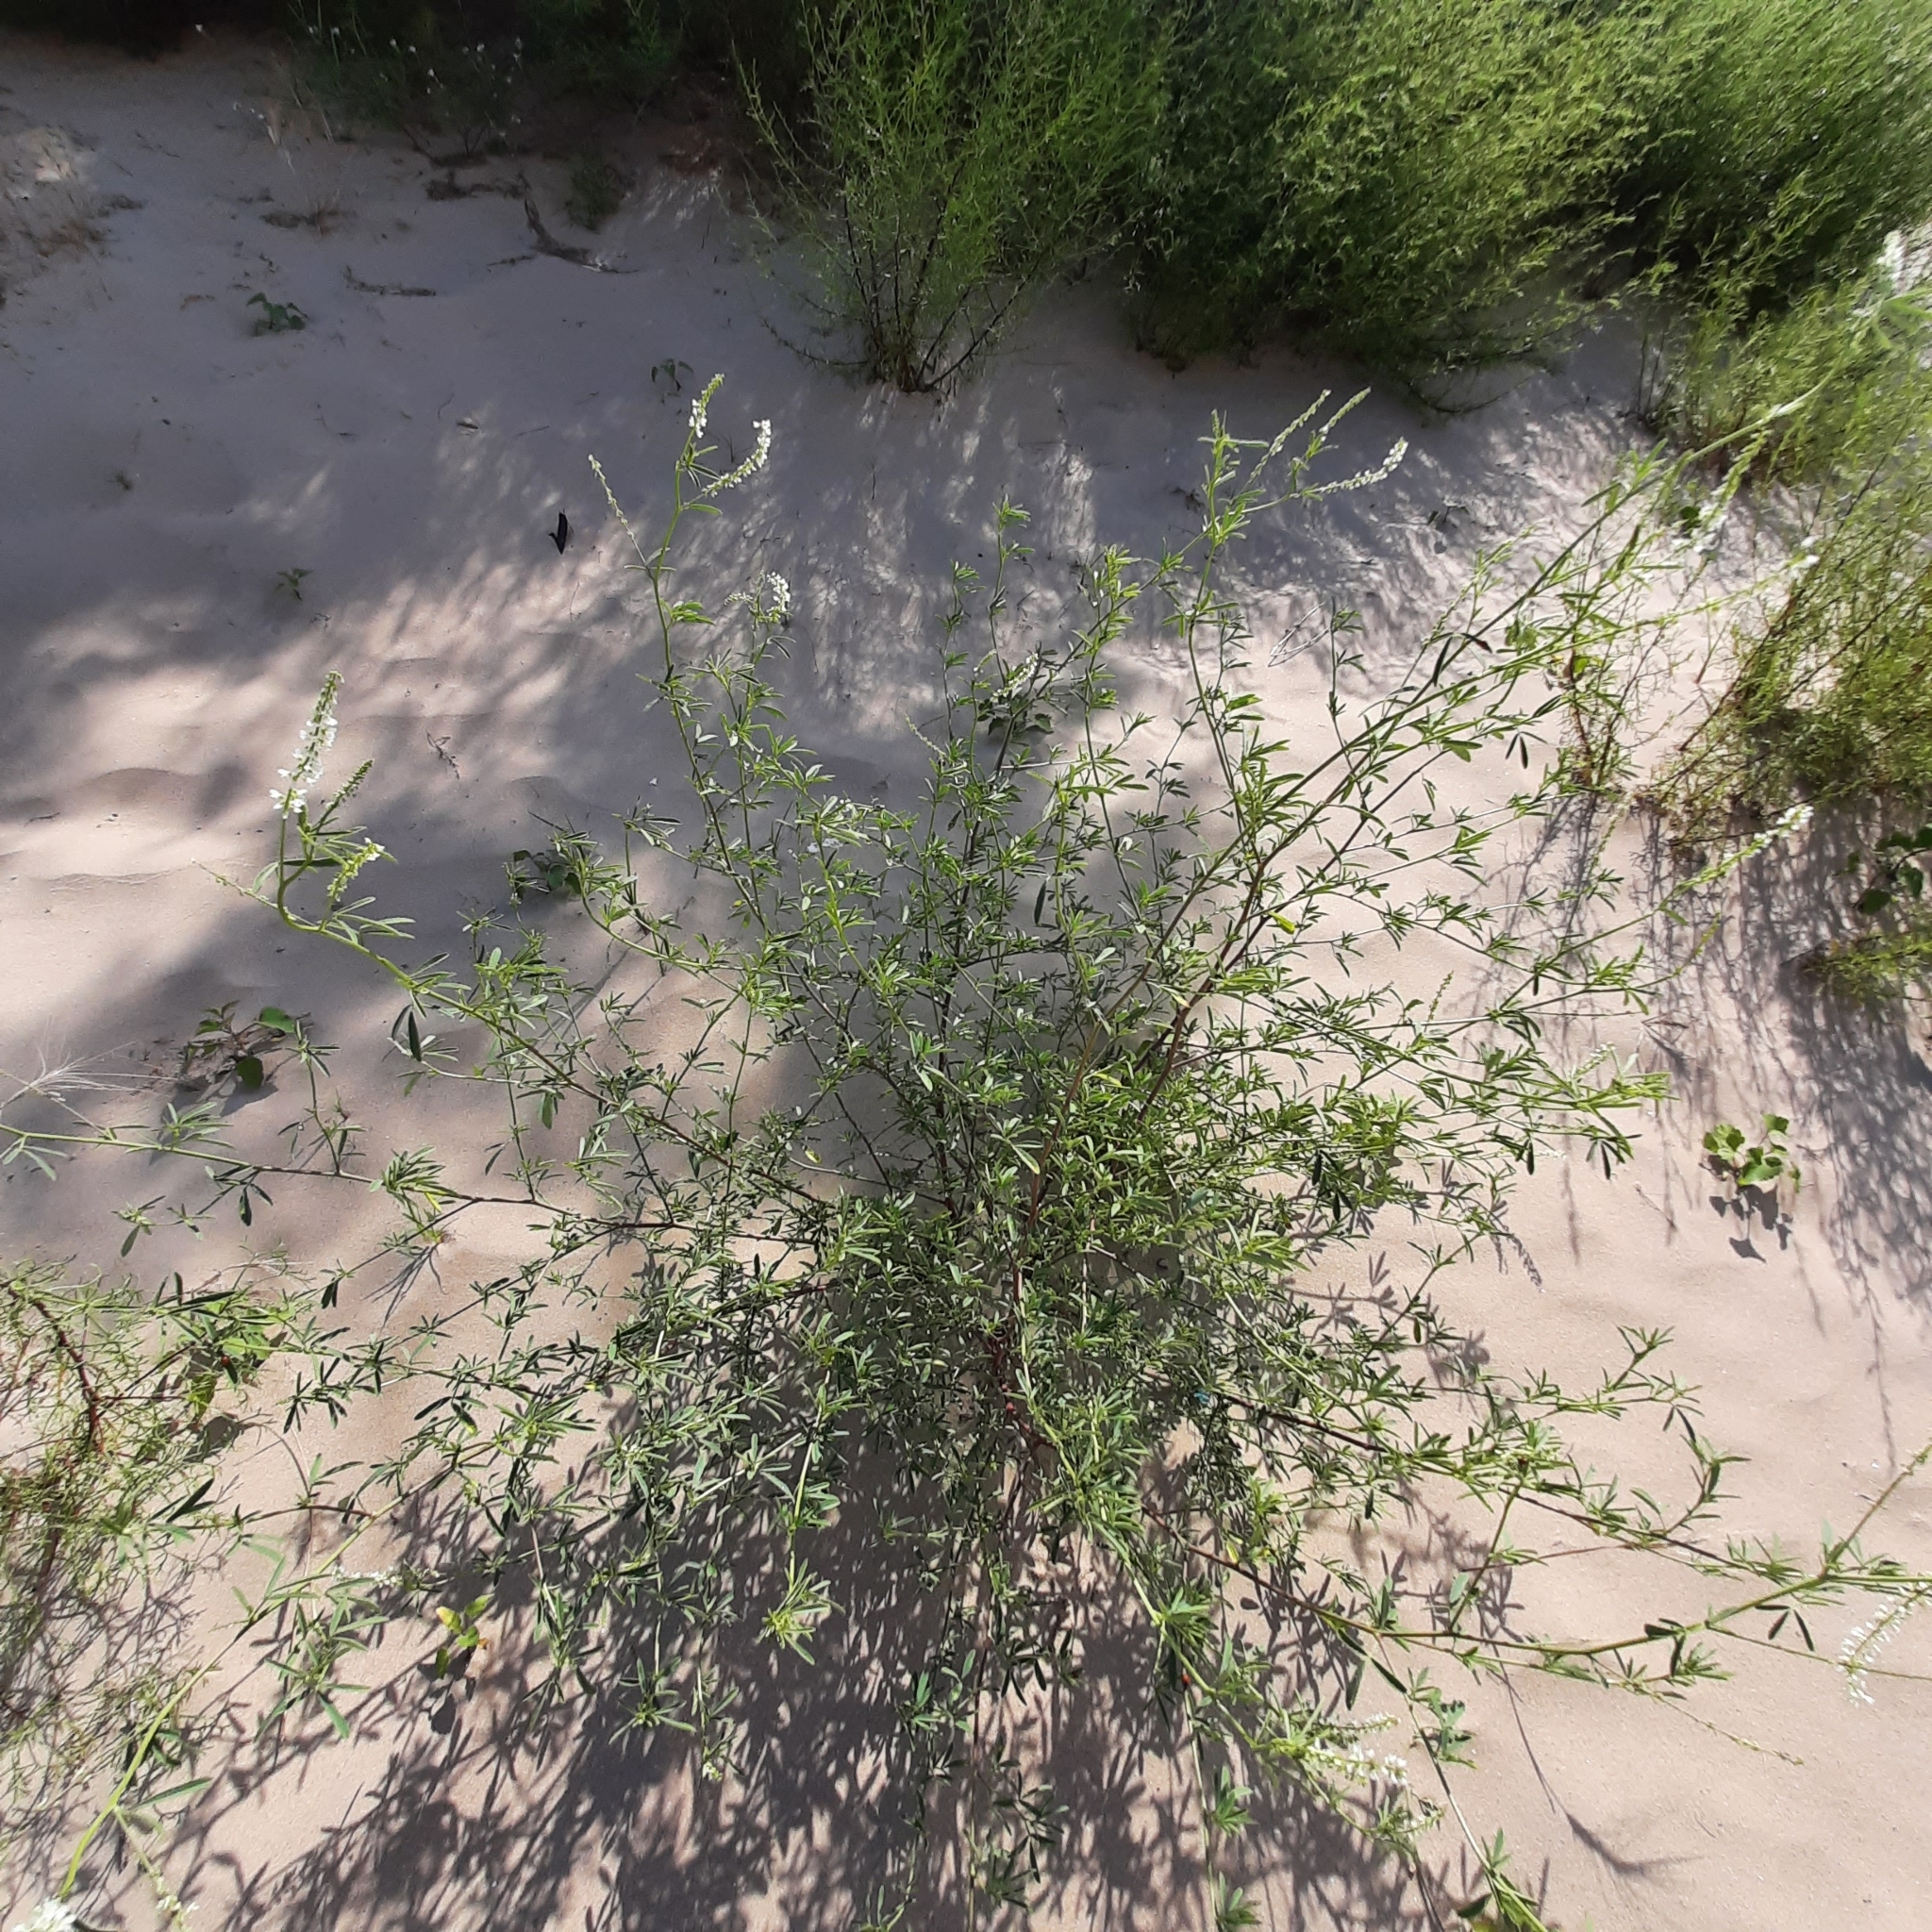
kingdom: Plantae
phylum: Tracheophyta
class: Magnoliopsida
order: Fabales
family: Fabaceae
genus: Melilotus
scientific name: Melilotus albus
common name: White melilot
